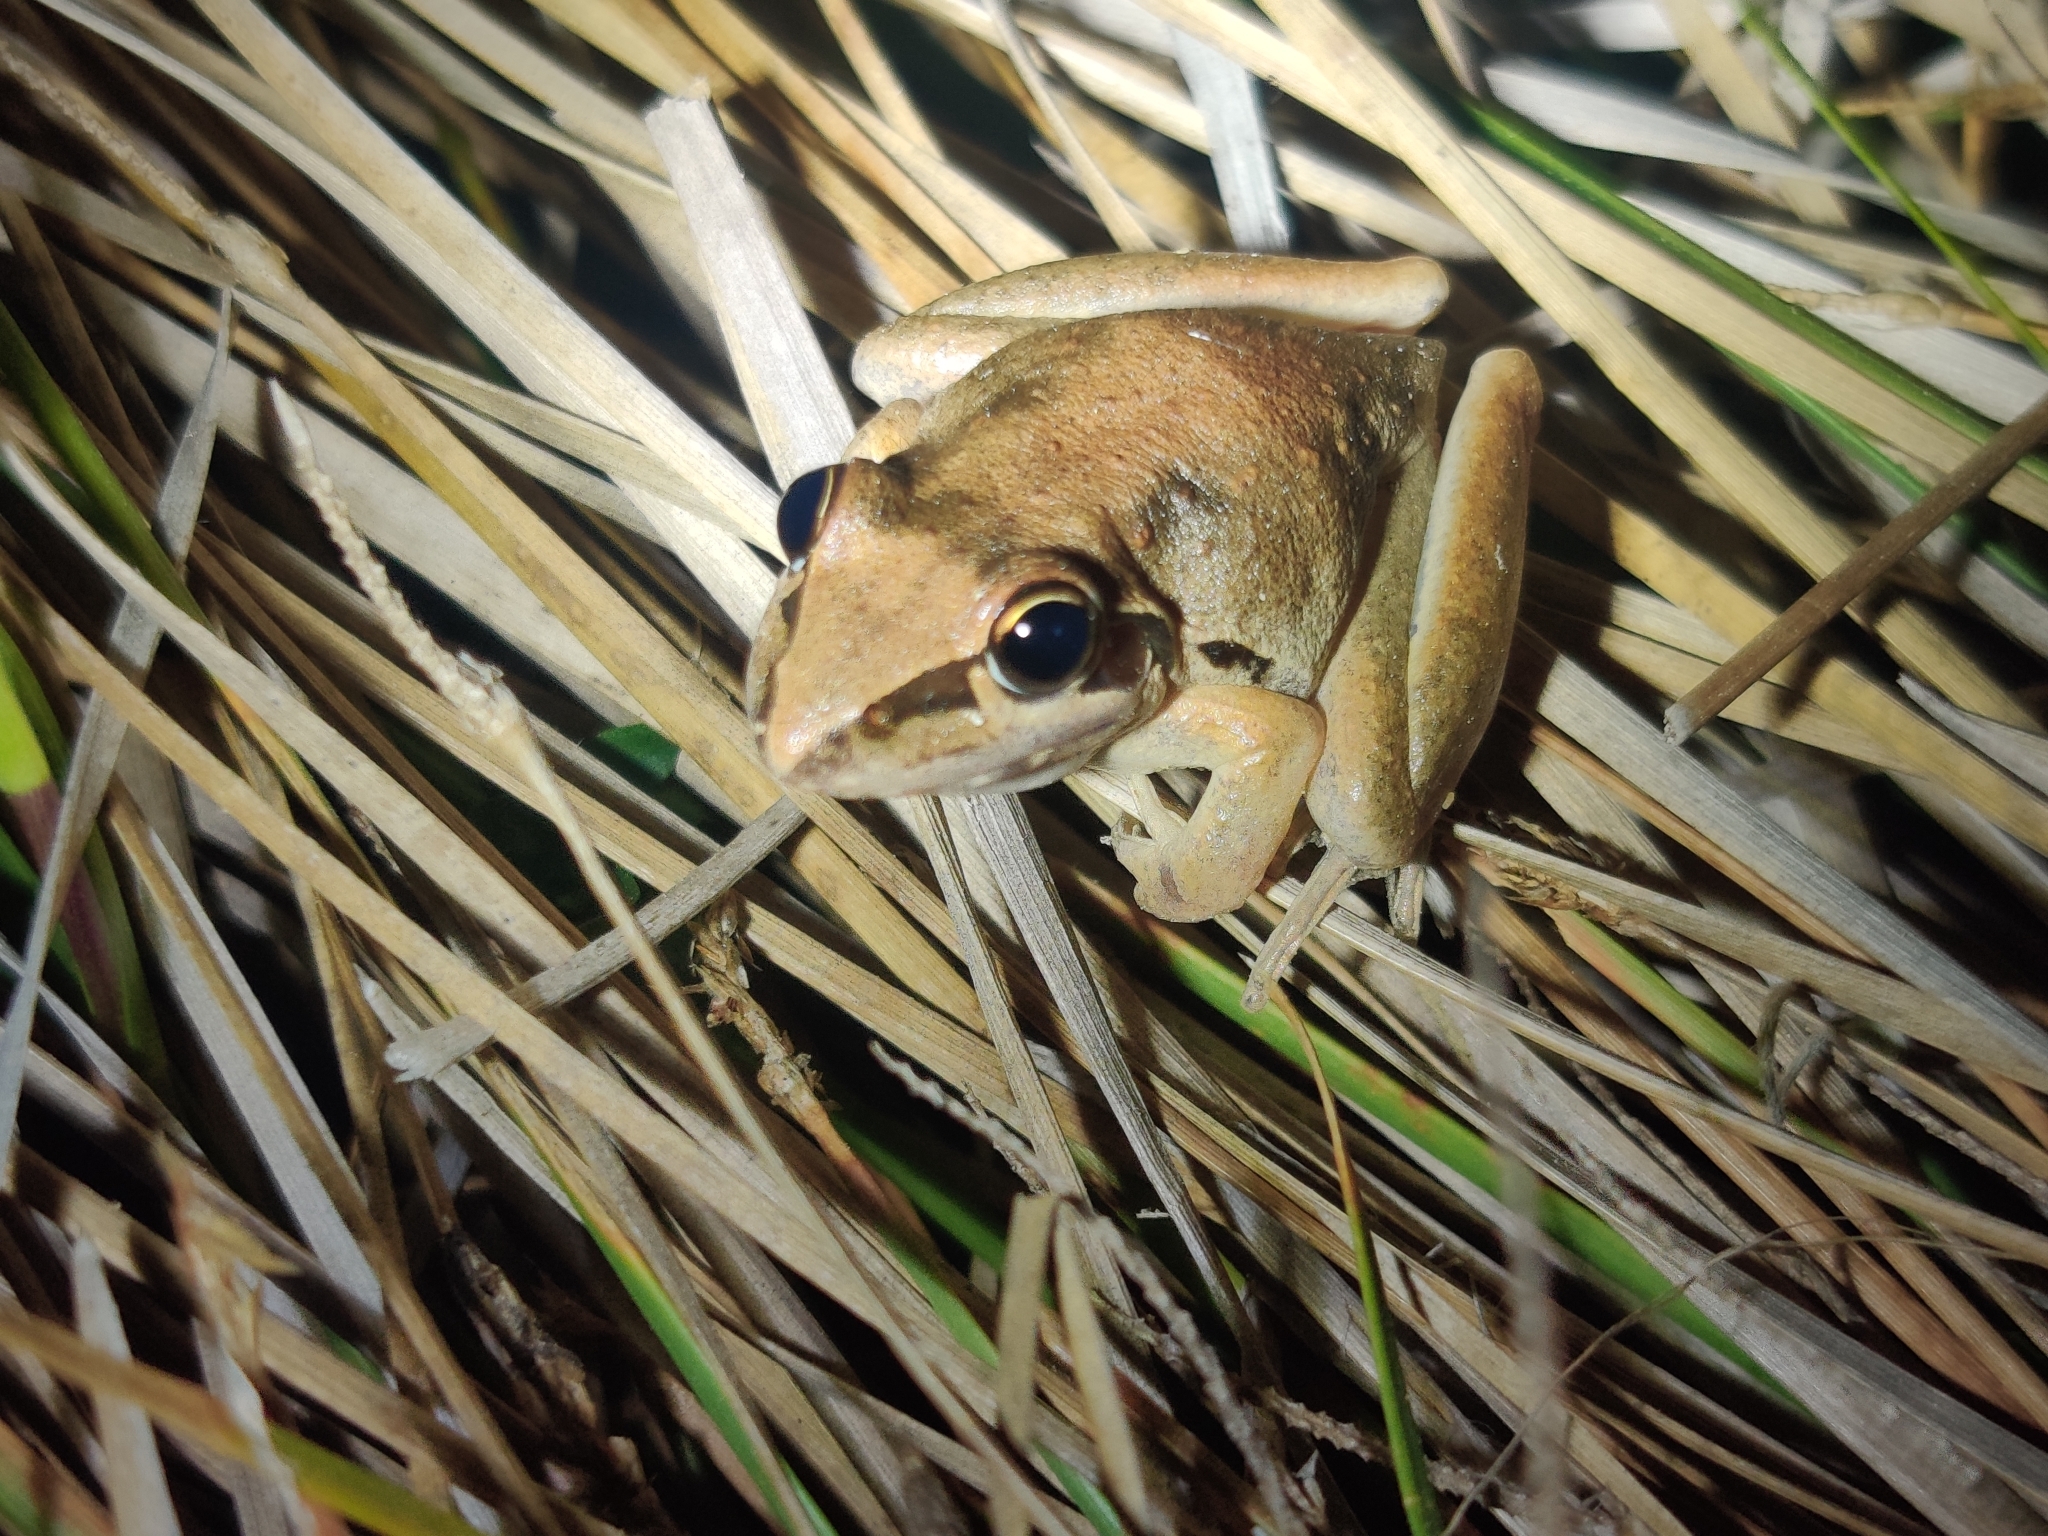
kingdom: Animalia
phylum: Chordata
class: Amphibia
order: Anura
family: Pelodryadidae
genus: Litoria
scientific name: Litoria latopalmata
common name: Broad-palmed rocket frog
